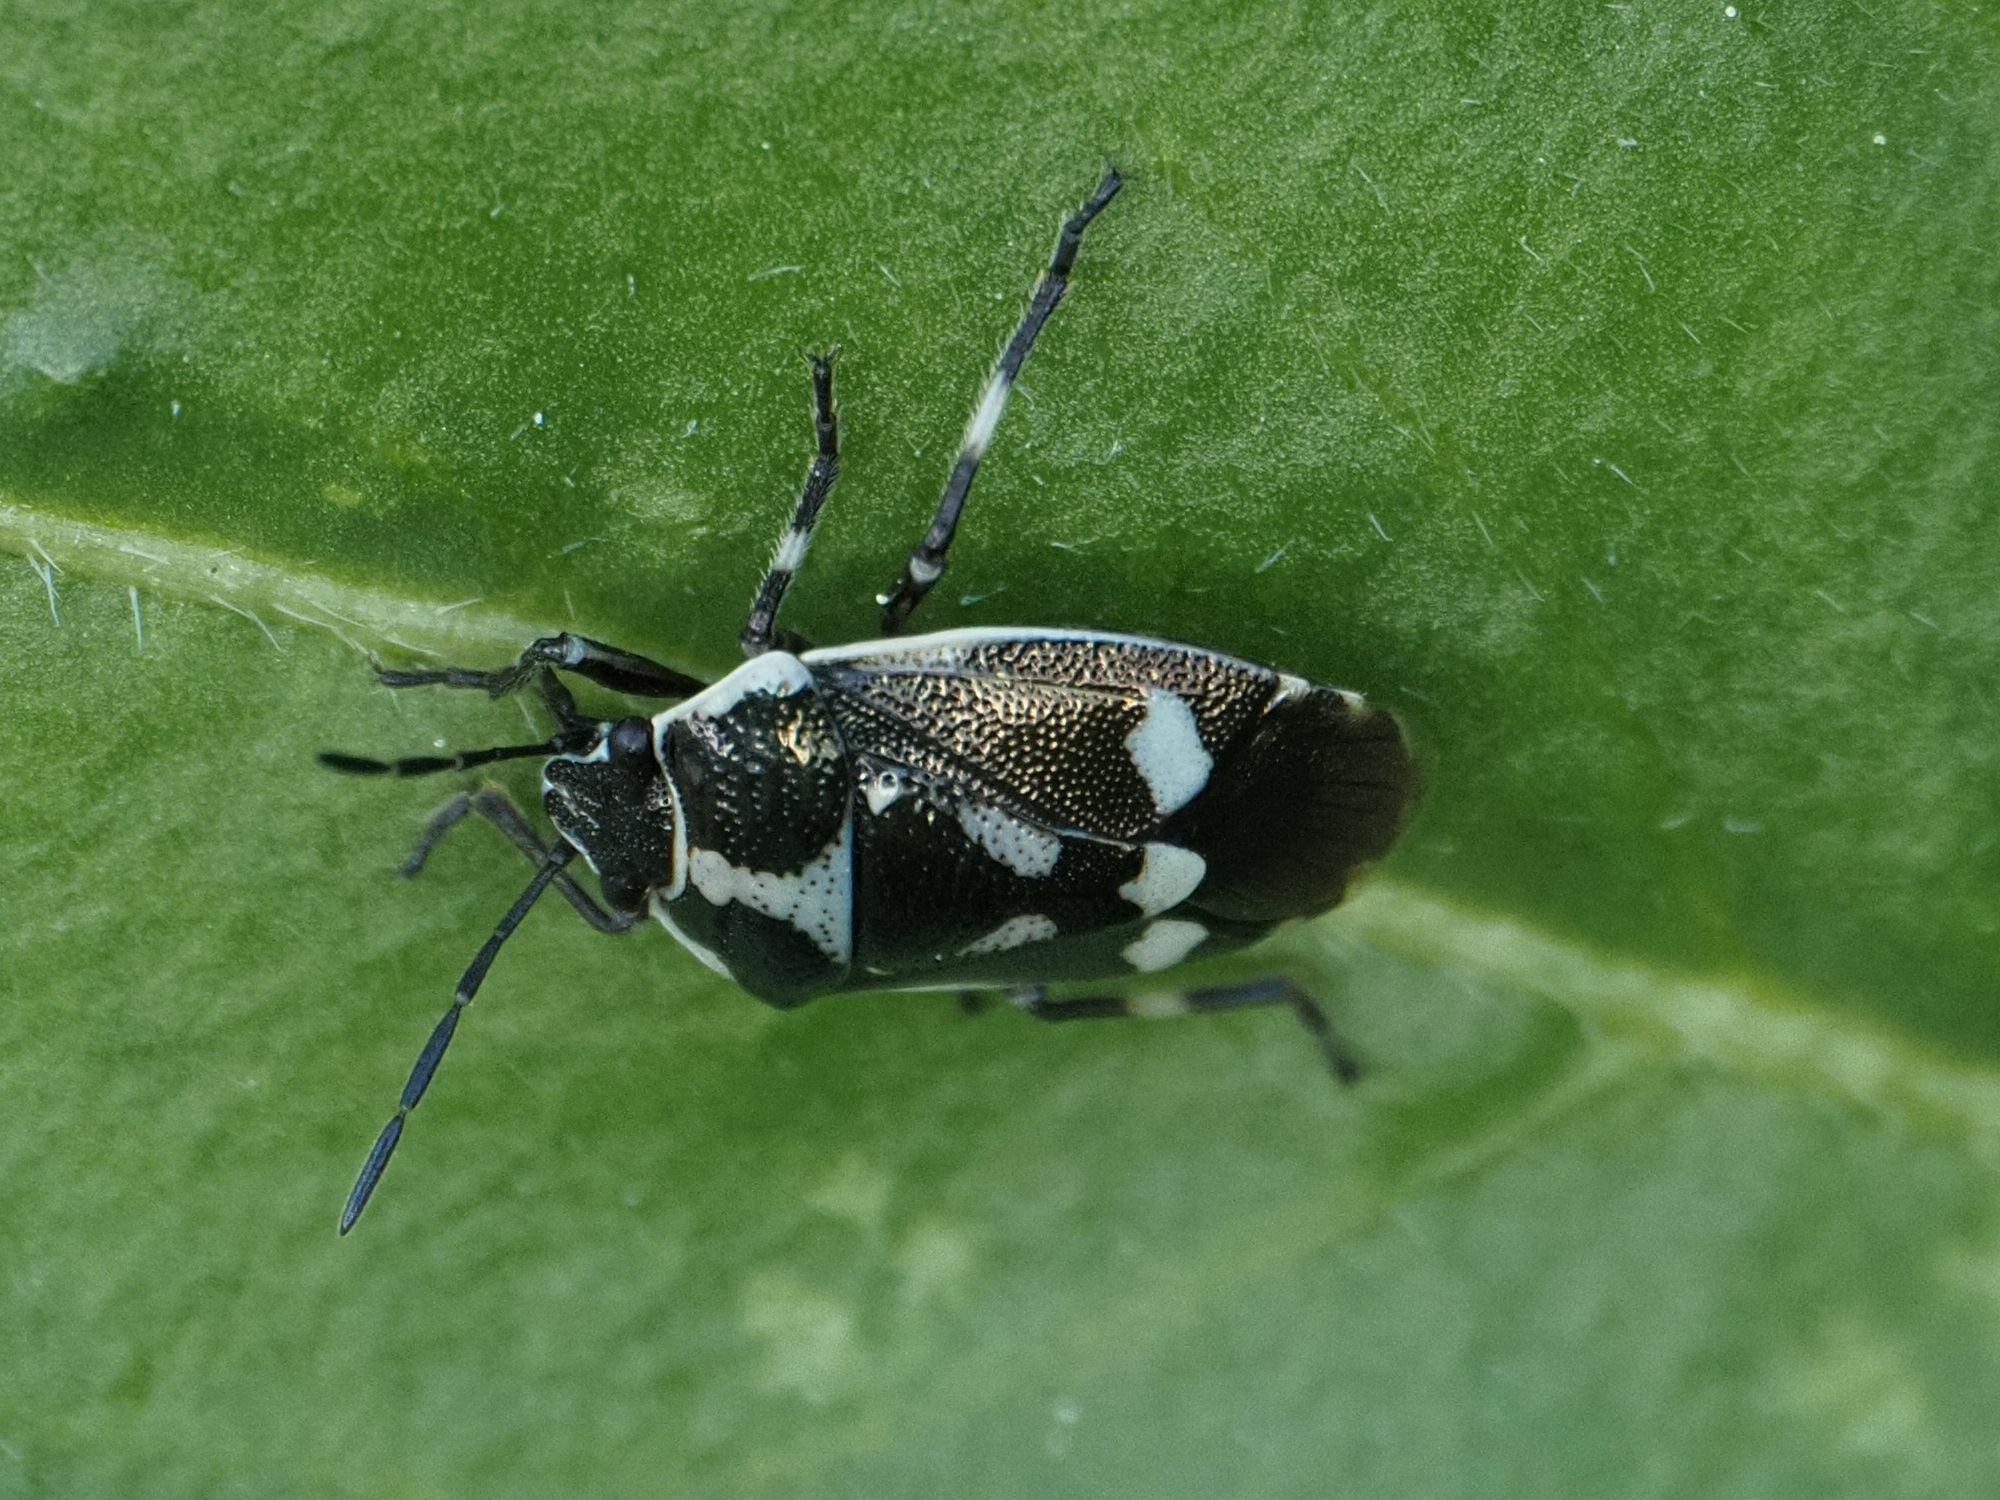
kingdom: Animalia
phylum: Arthropoda
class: Insecta
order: Hemiptera
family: Pentatomidae
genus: Eurydema
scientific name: Eurydema oleracea
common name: Cabbage bug
